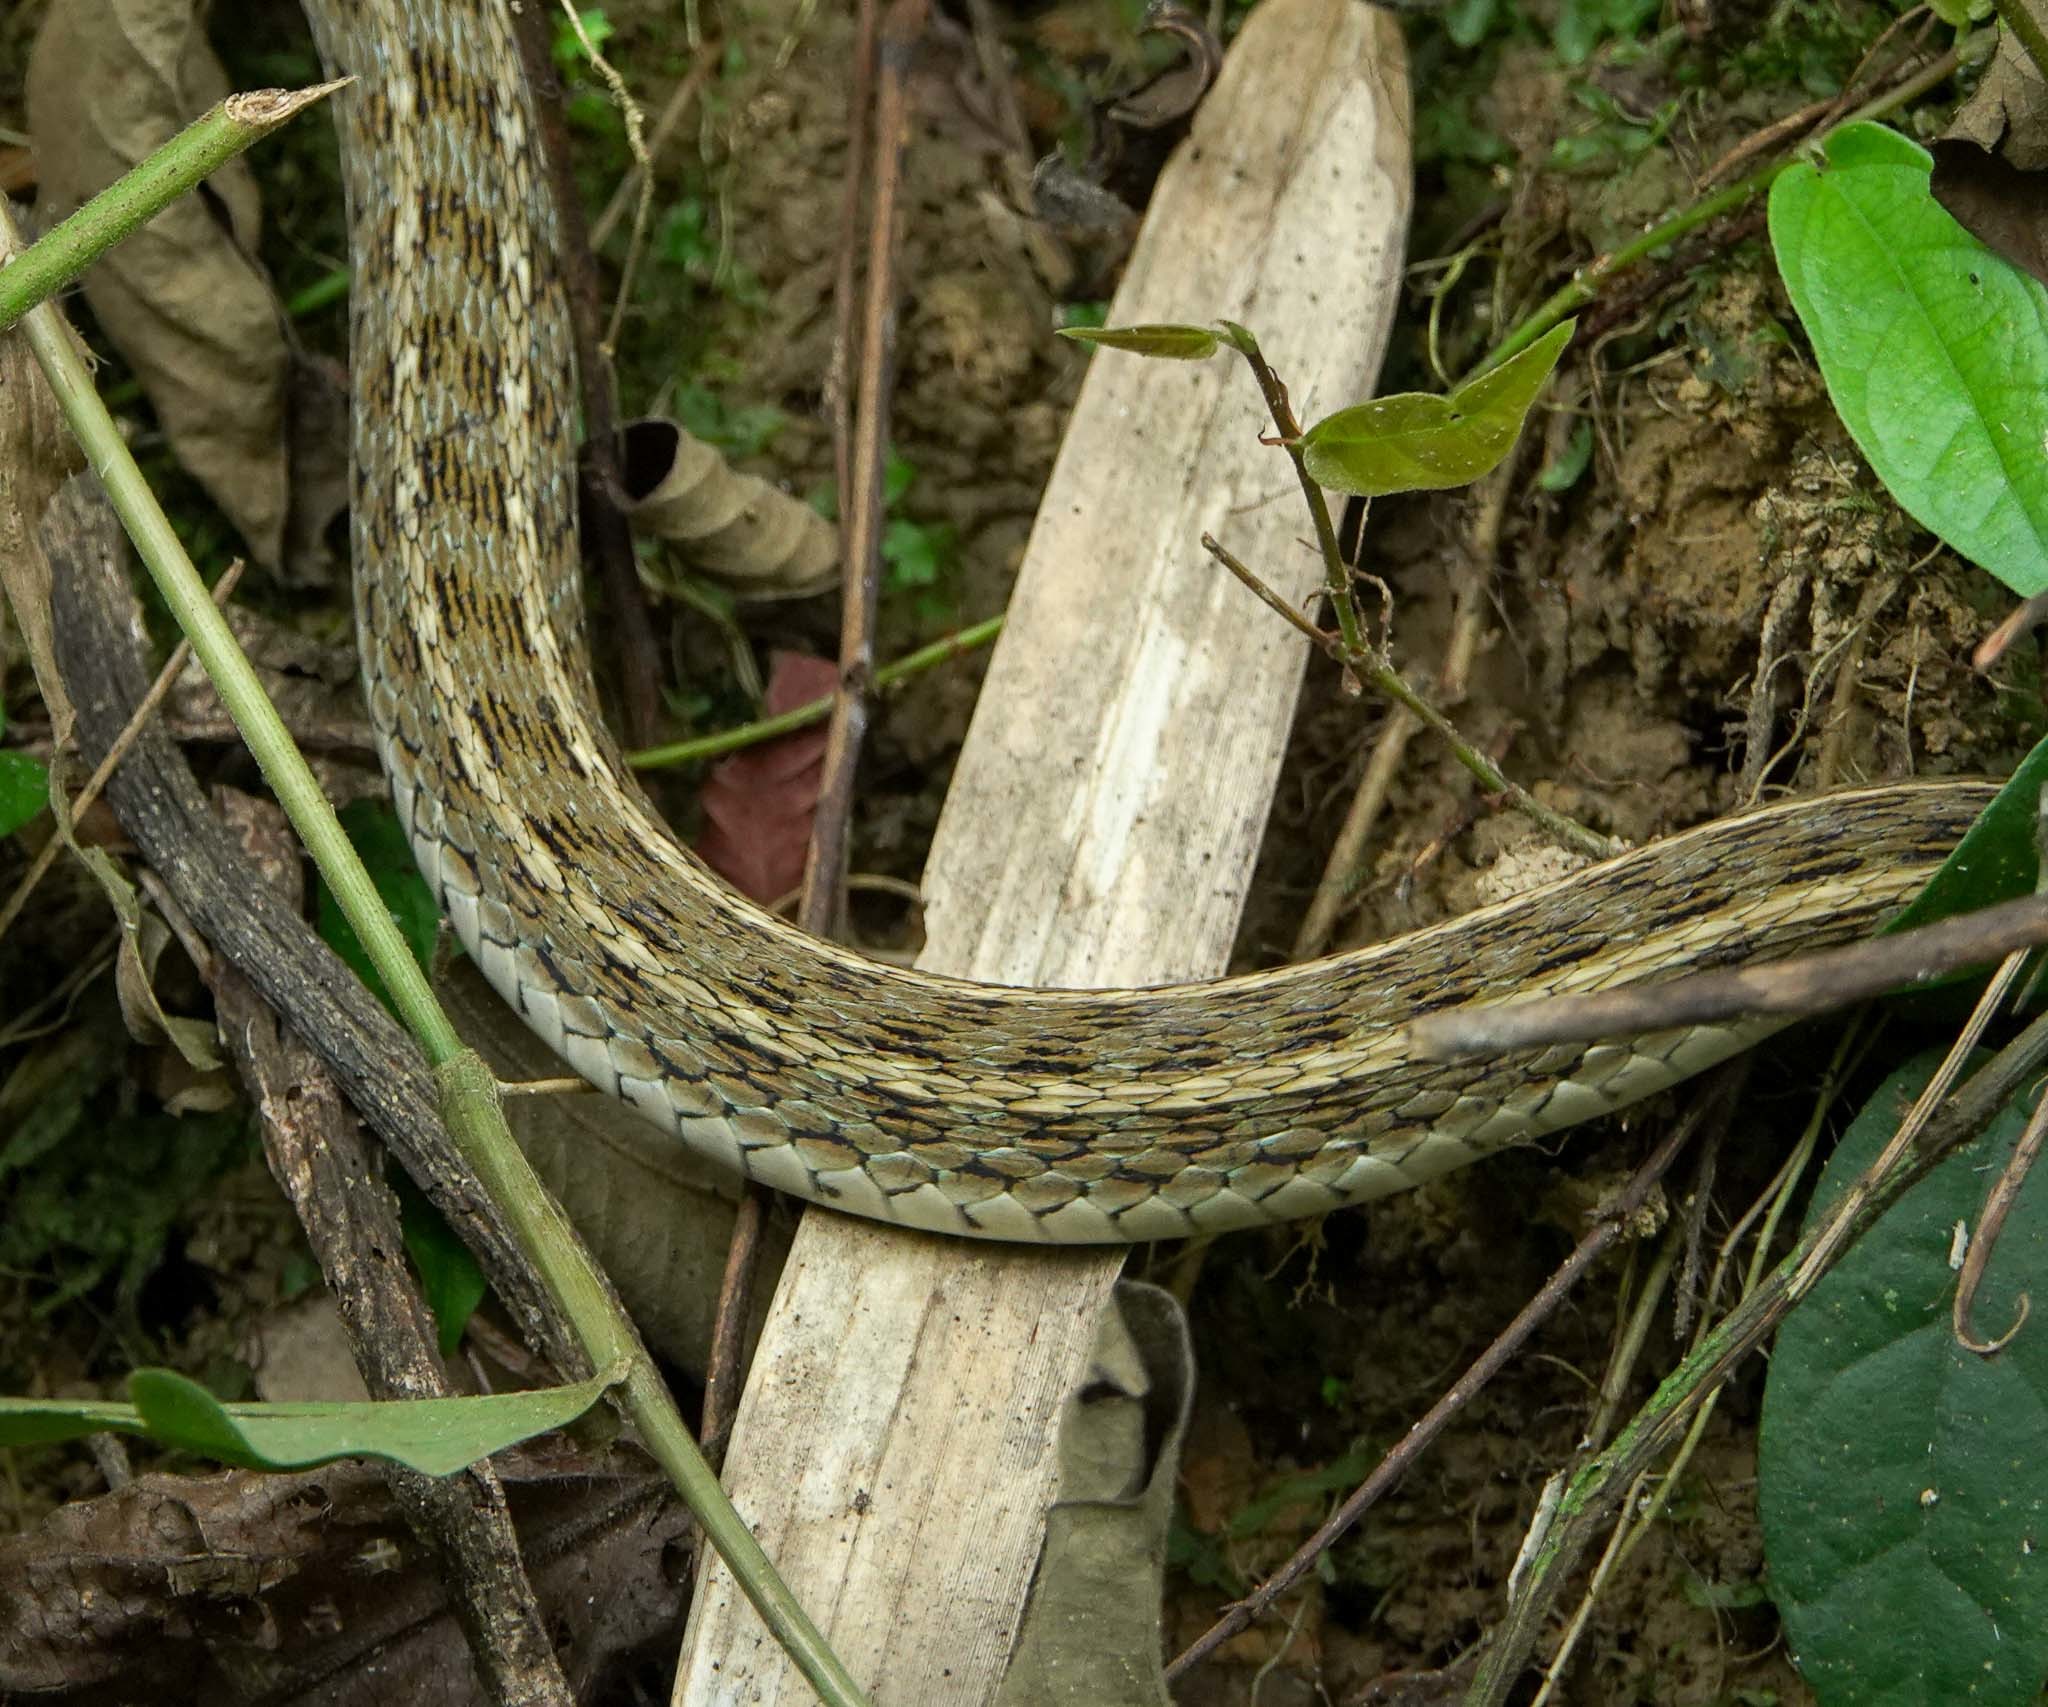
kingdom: Animalia
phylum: Chordata
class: Squamata
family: Colubridae
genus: Amphiesma
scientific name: Amphiesma stolatum
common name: Buff striped keelback
